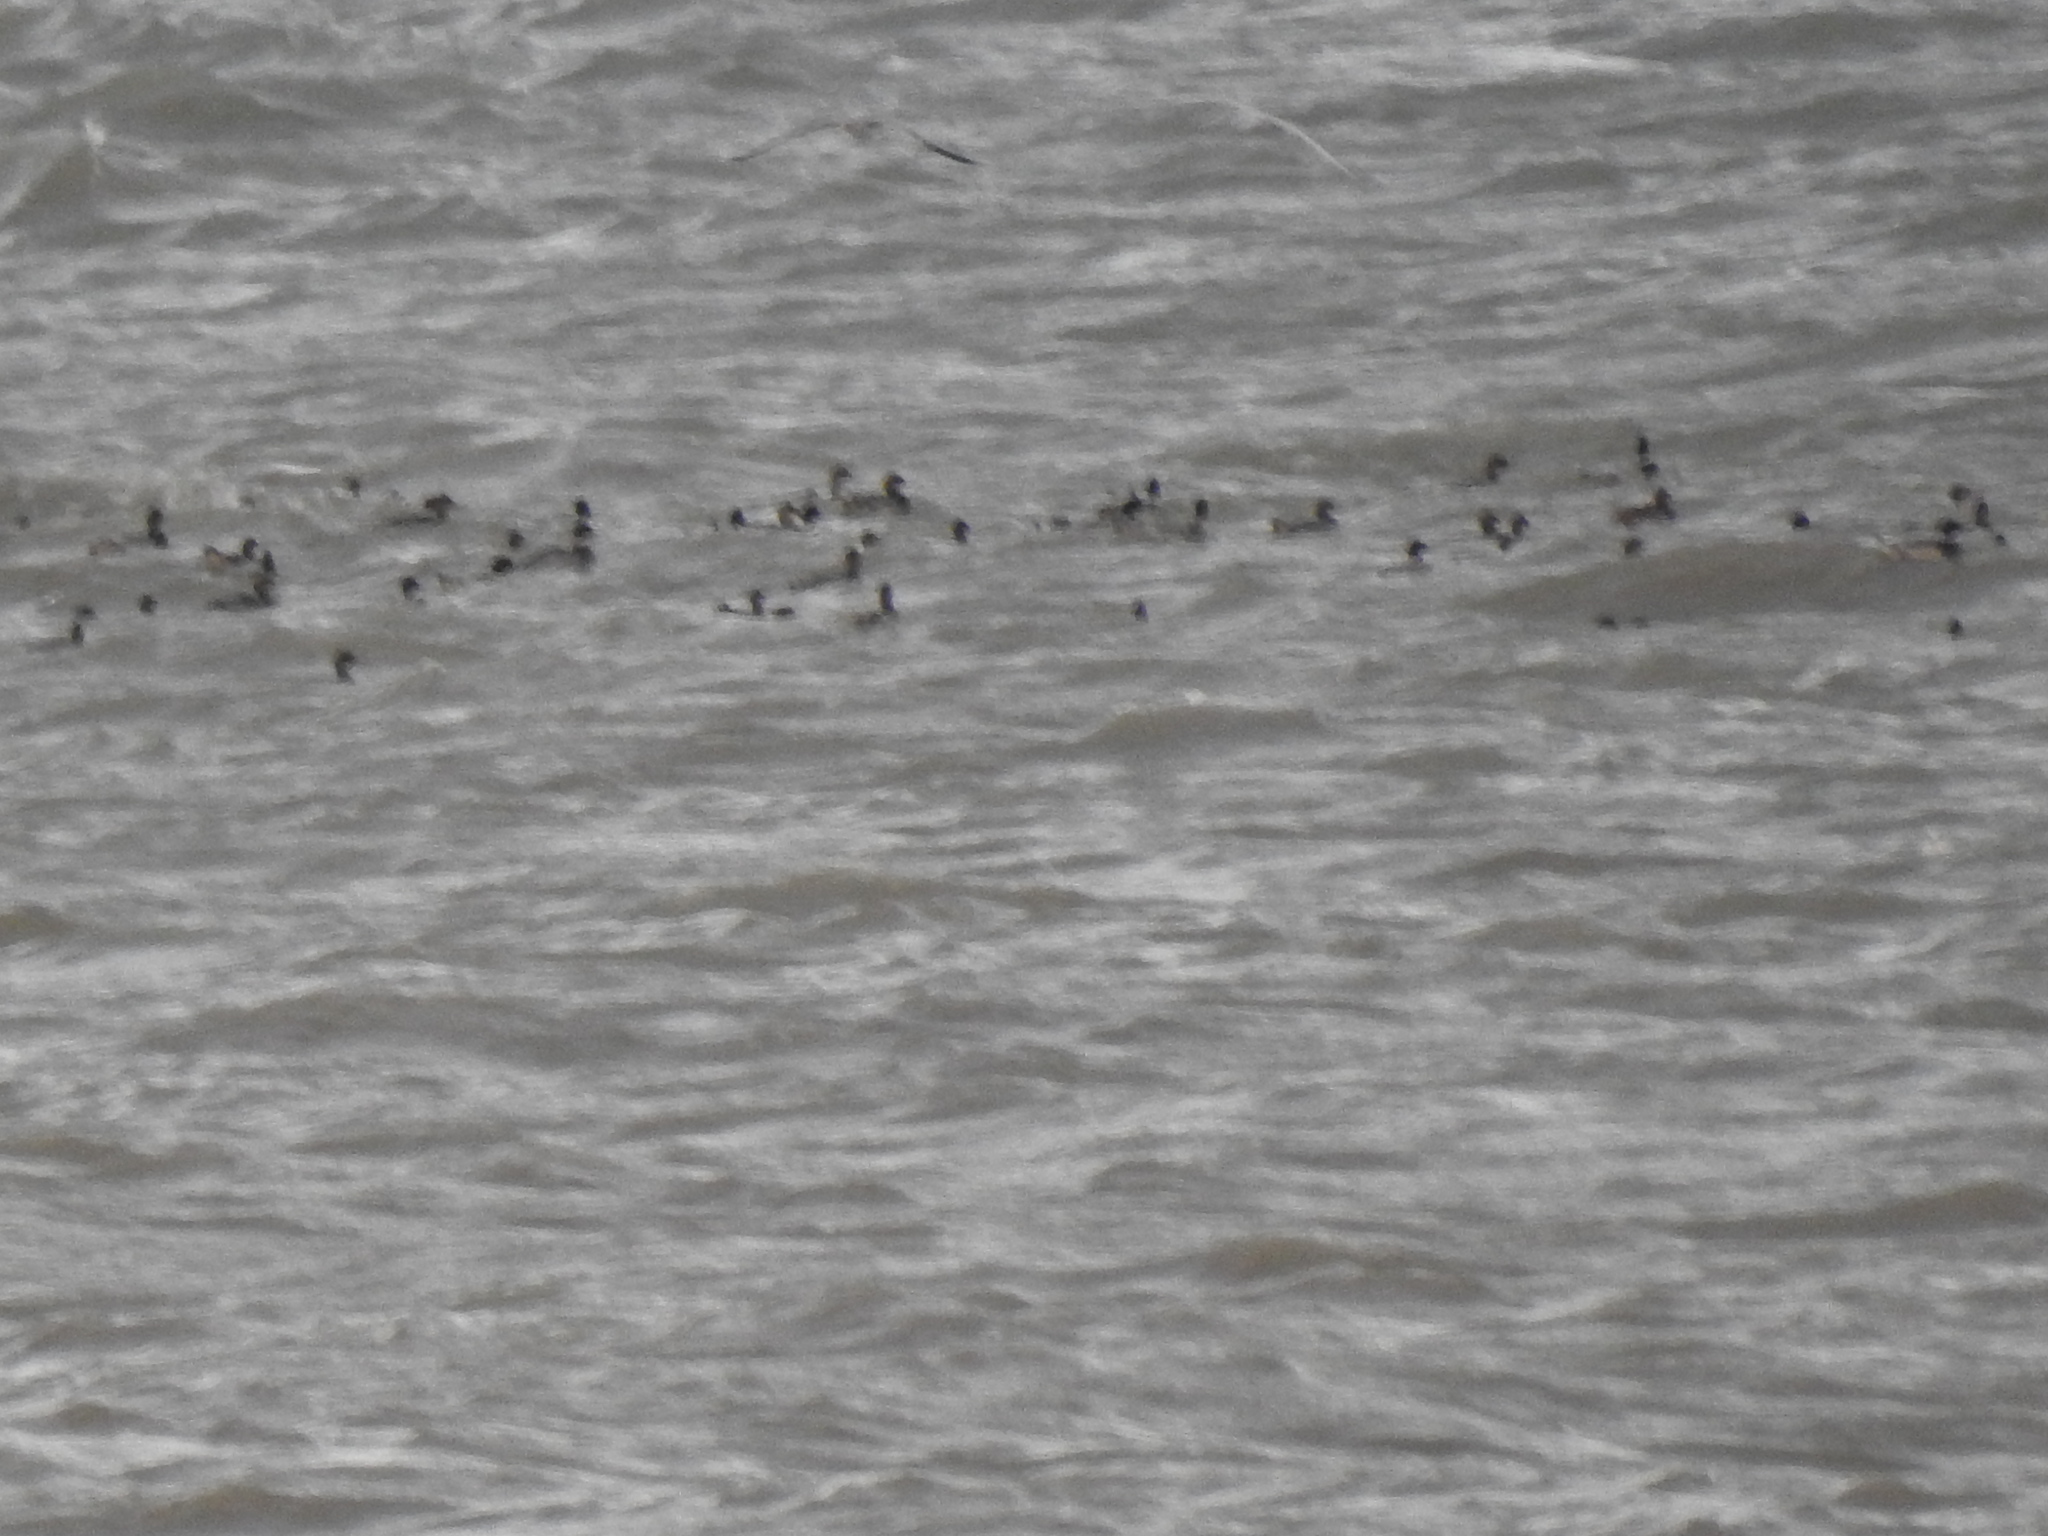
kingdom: Animalia
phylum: Chordata
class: Aves
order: Anseriformes
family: Anatidae
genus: Mergus
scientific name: Mergus serrator
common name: Red-breasted merganser
